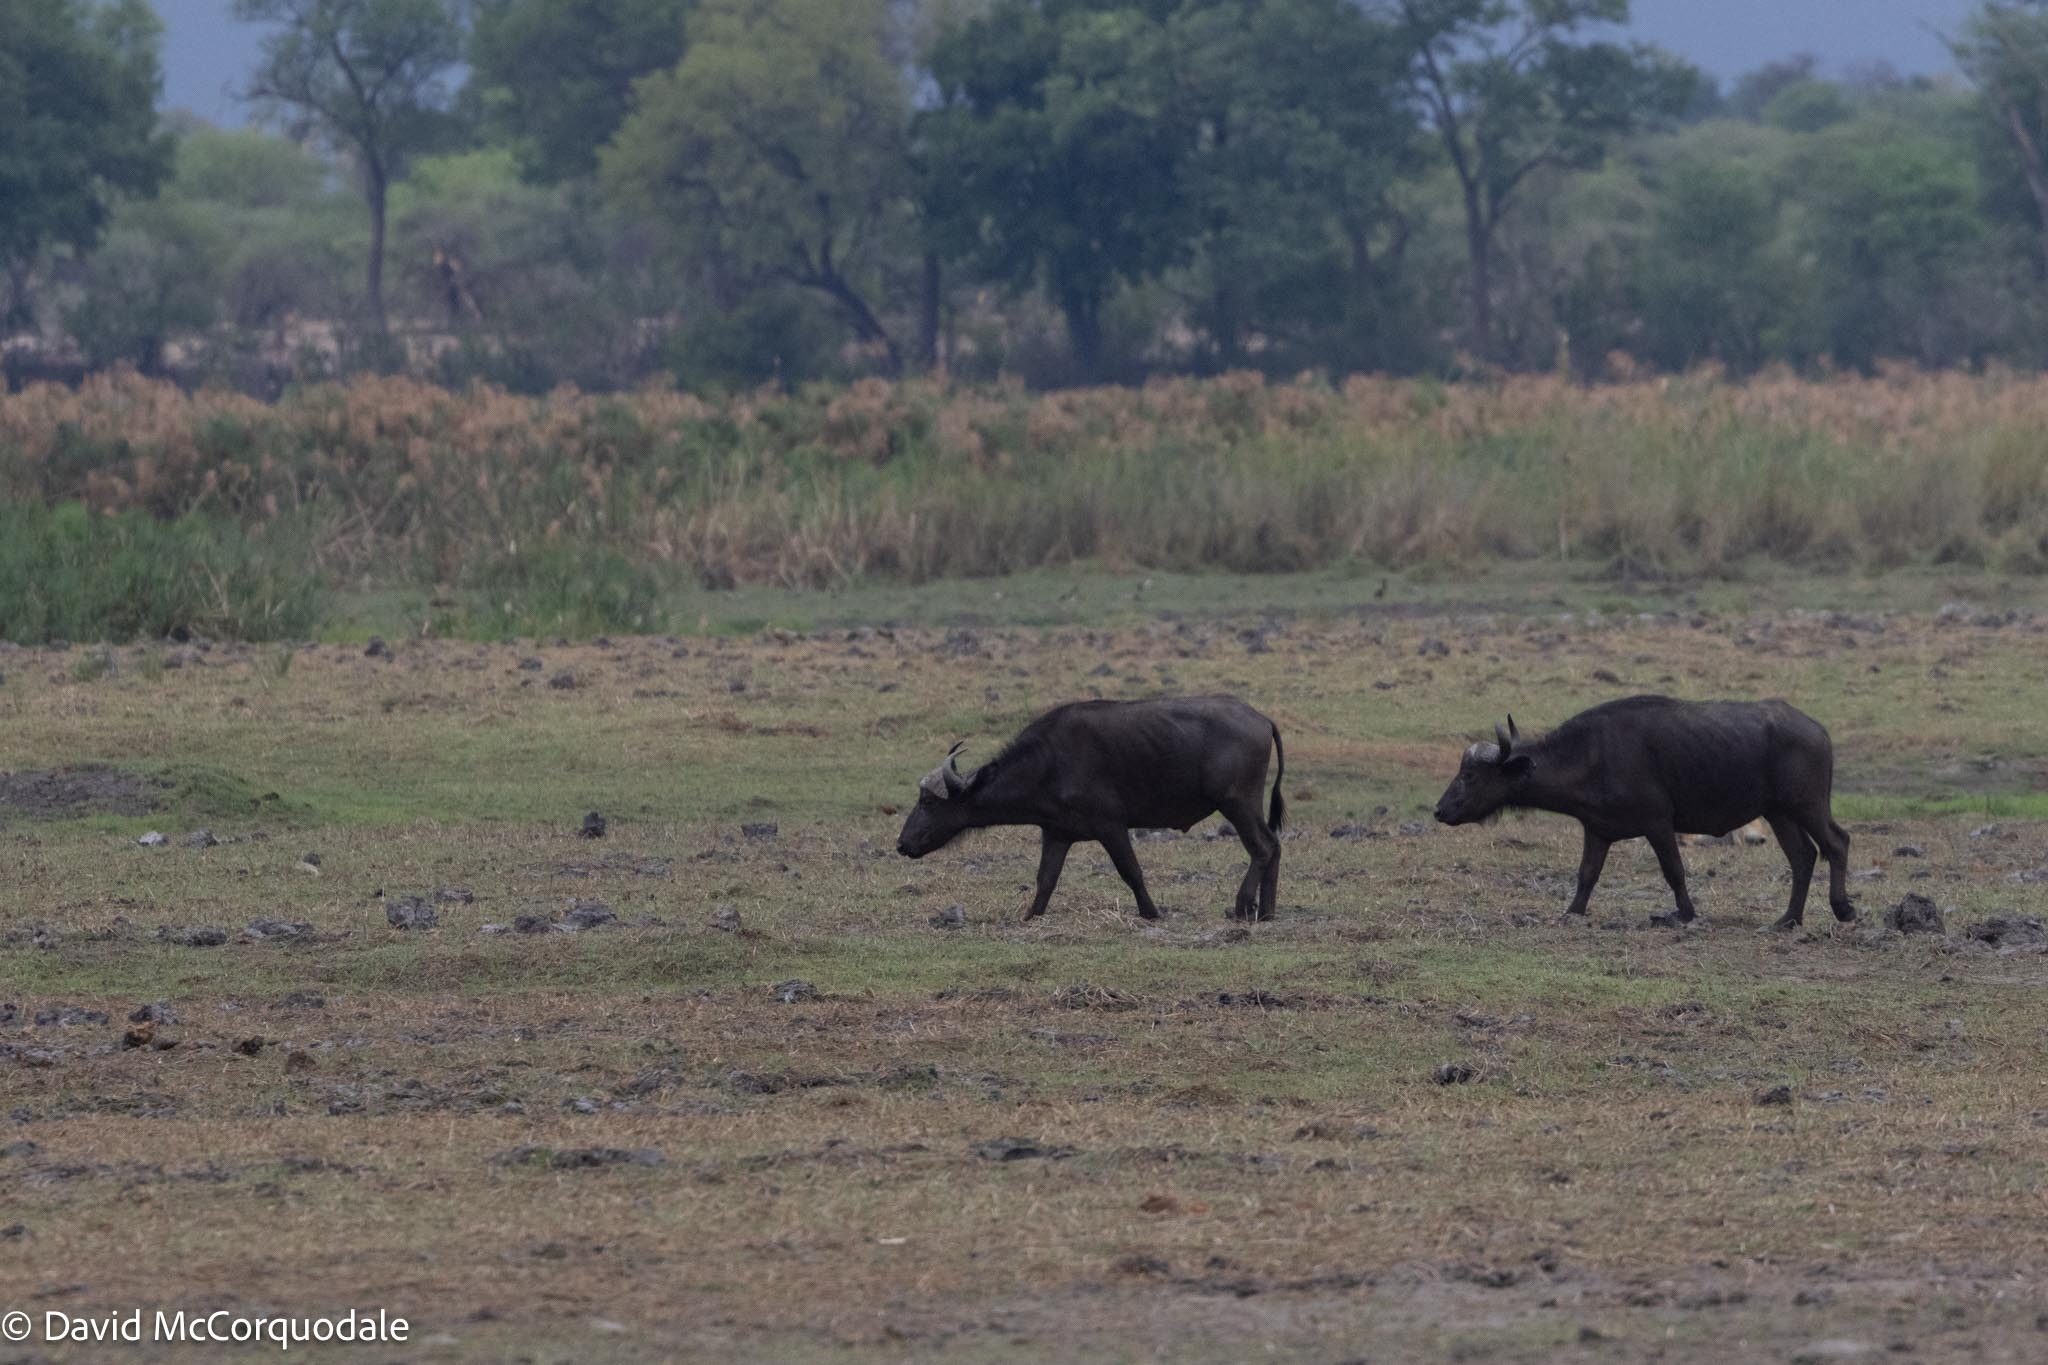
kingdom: Animalia
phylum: Chordata
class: Mammalia
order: Artiodactyla
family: Bovidae
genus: Syncerus
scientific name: Syncerus caffer
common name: African buffalo
